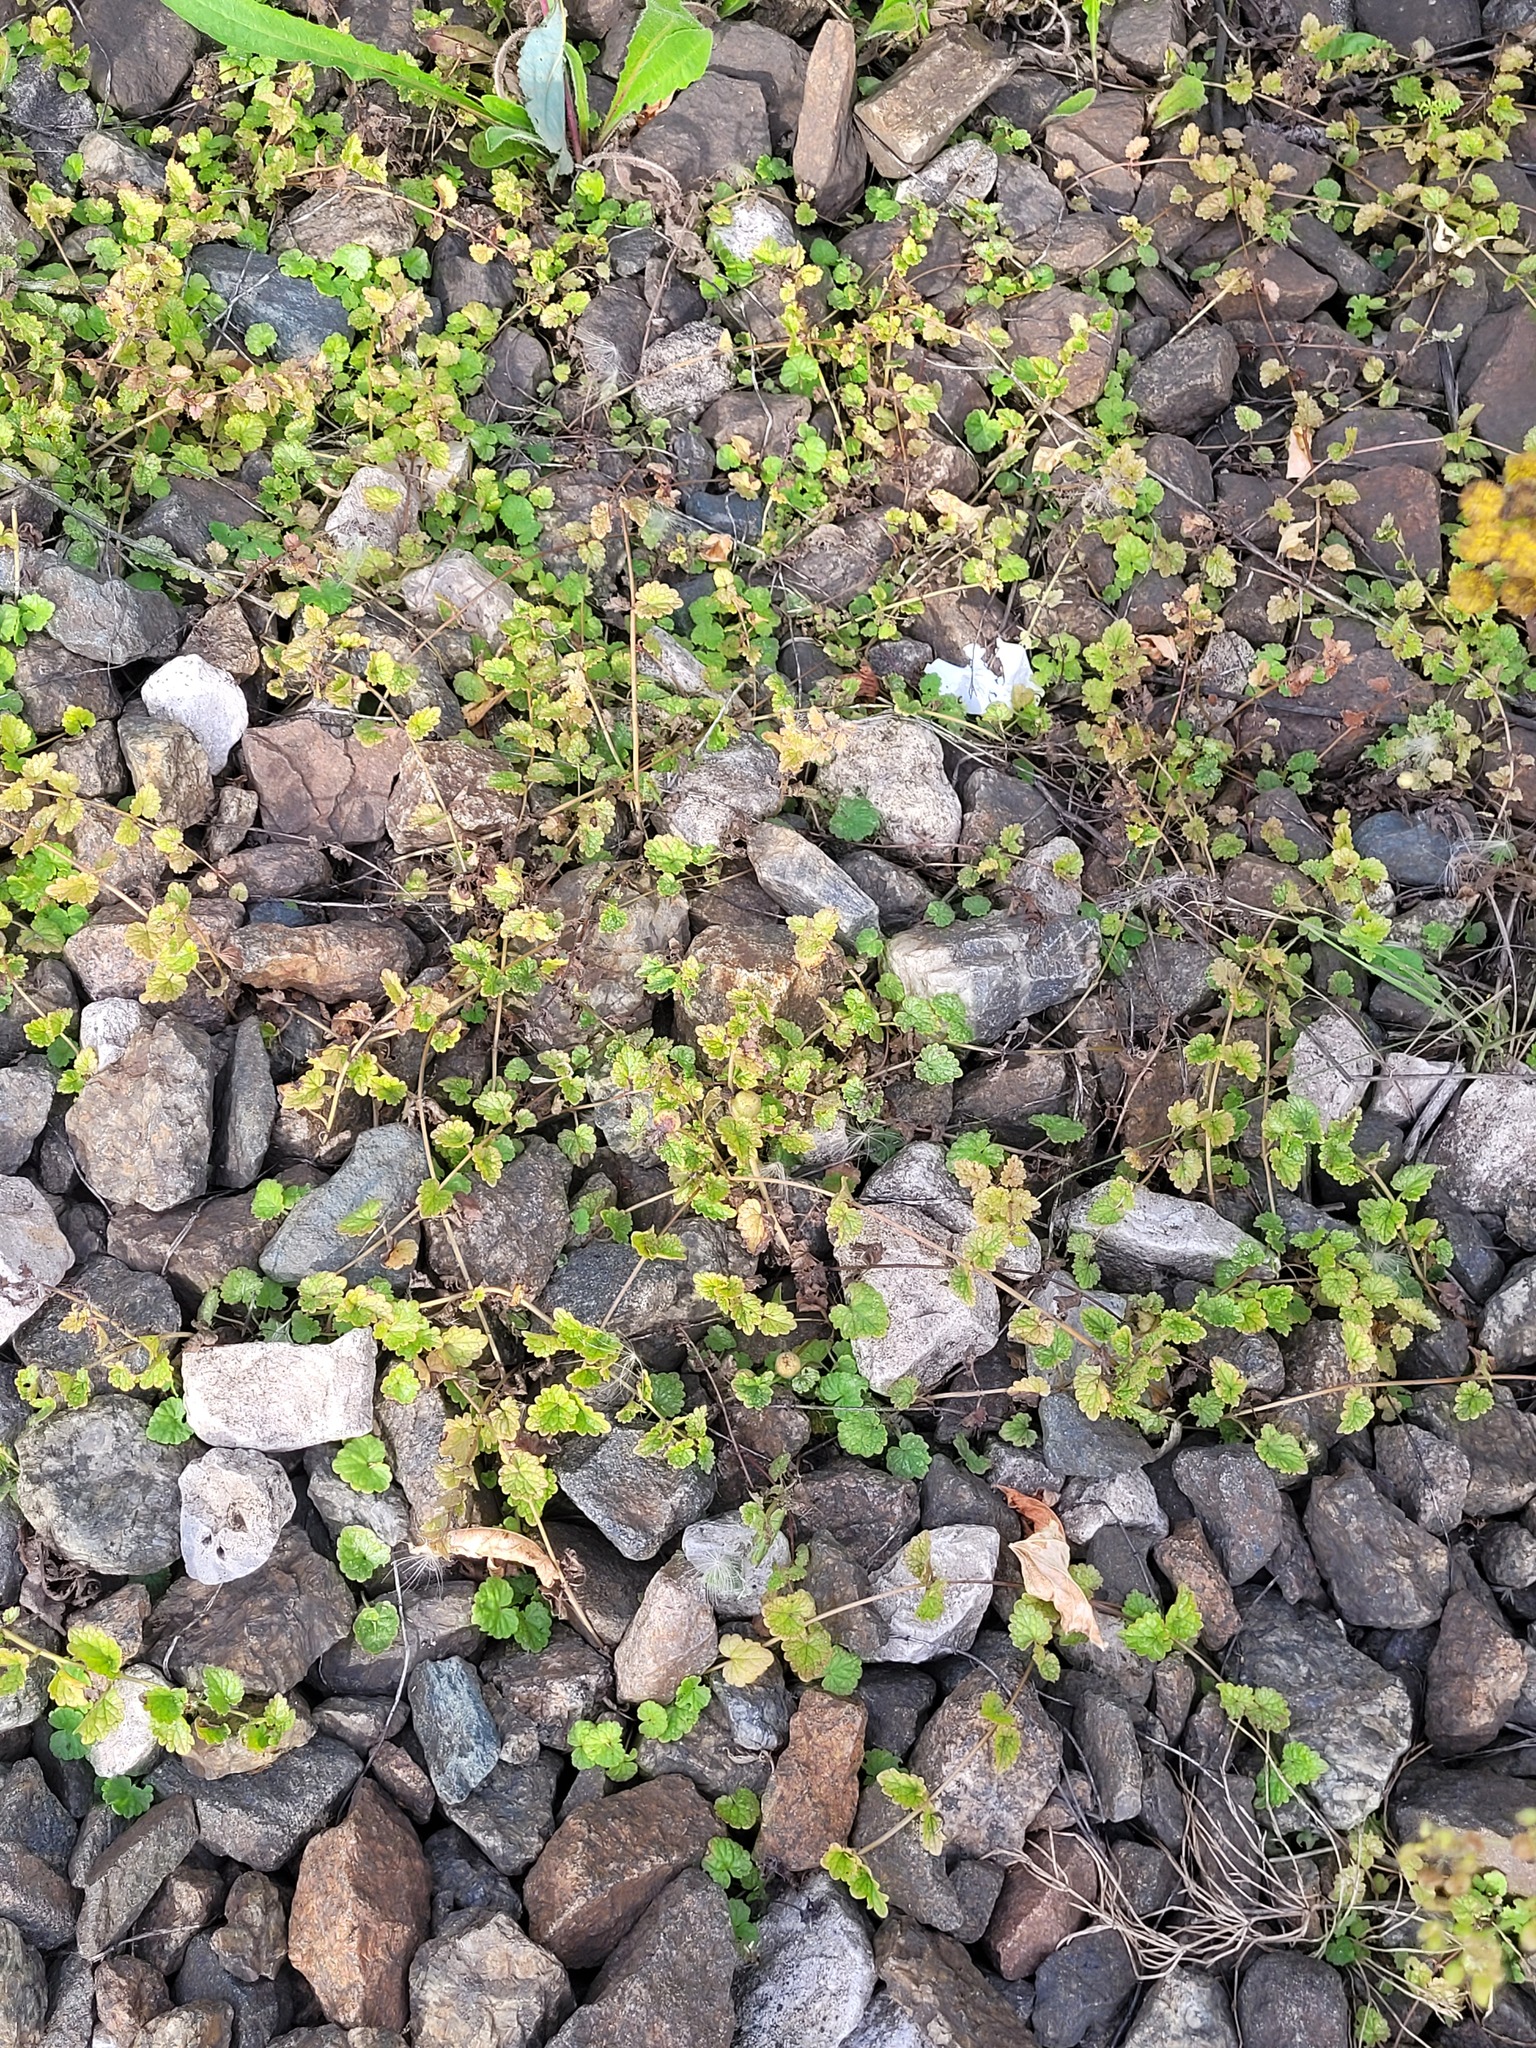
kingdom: Plantae
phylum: Tracheophyta
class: Magnoliopsida
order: Lamiales
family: Lamiaceae
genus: Glechoma
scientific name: Glechoma hederacea
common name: Ground ivy
